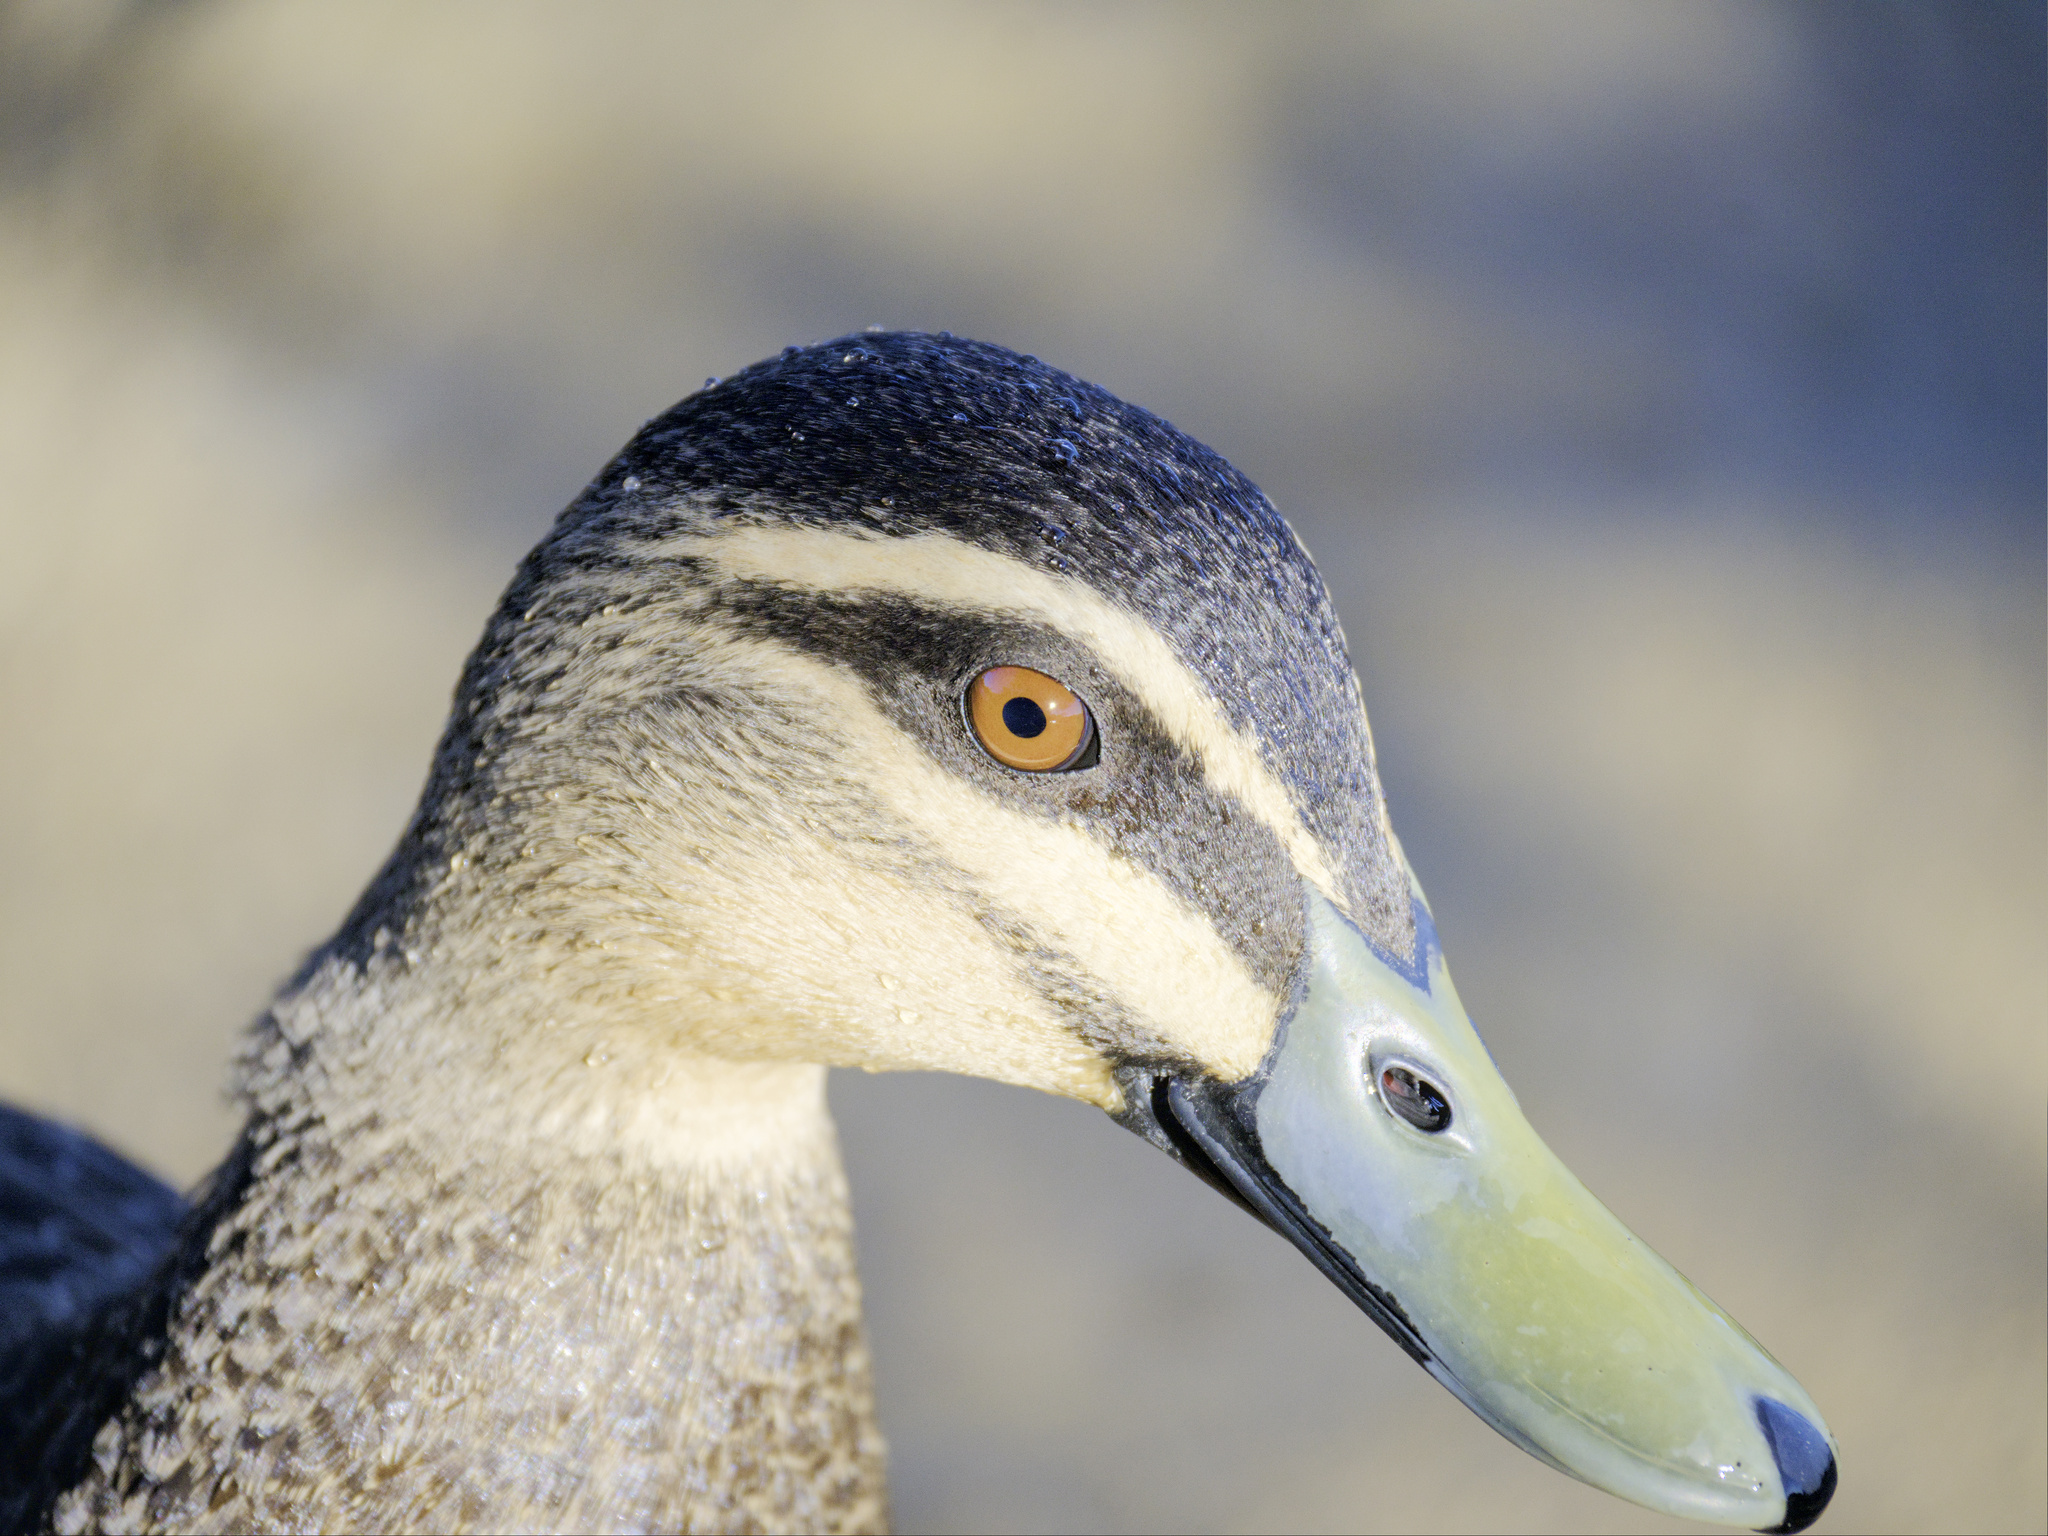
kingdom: Animalia
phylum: Chordata
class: Aves
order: Anseriformes
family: Anatidae
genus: Anas
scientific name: Anas superciliosa
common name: Pacific black duck
